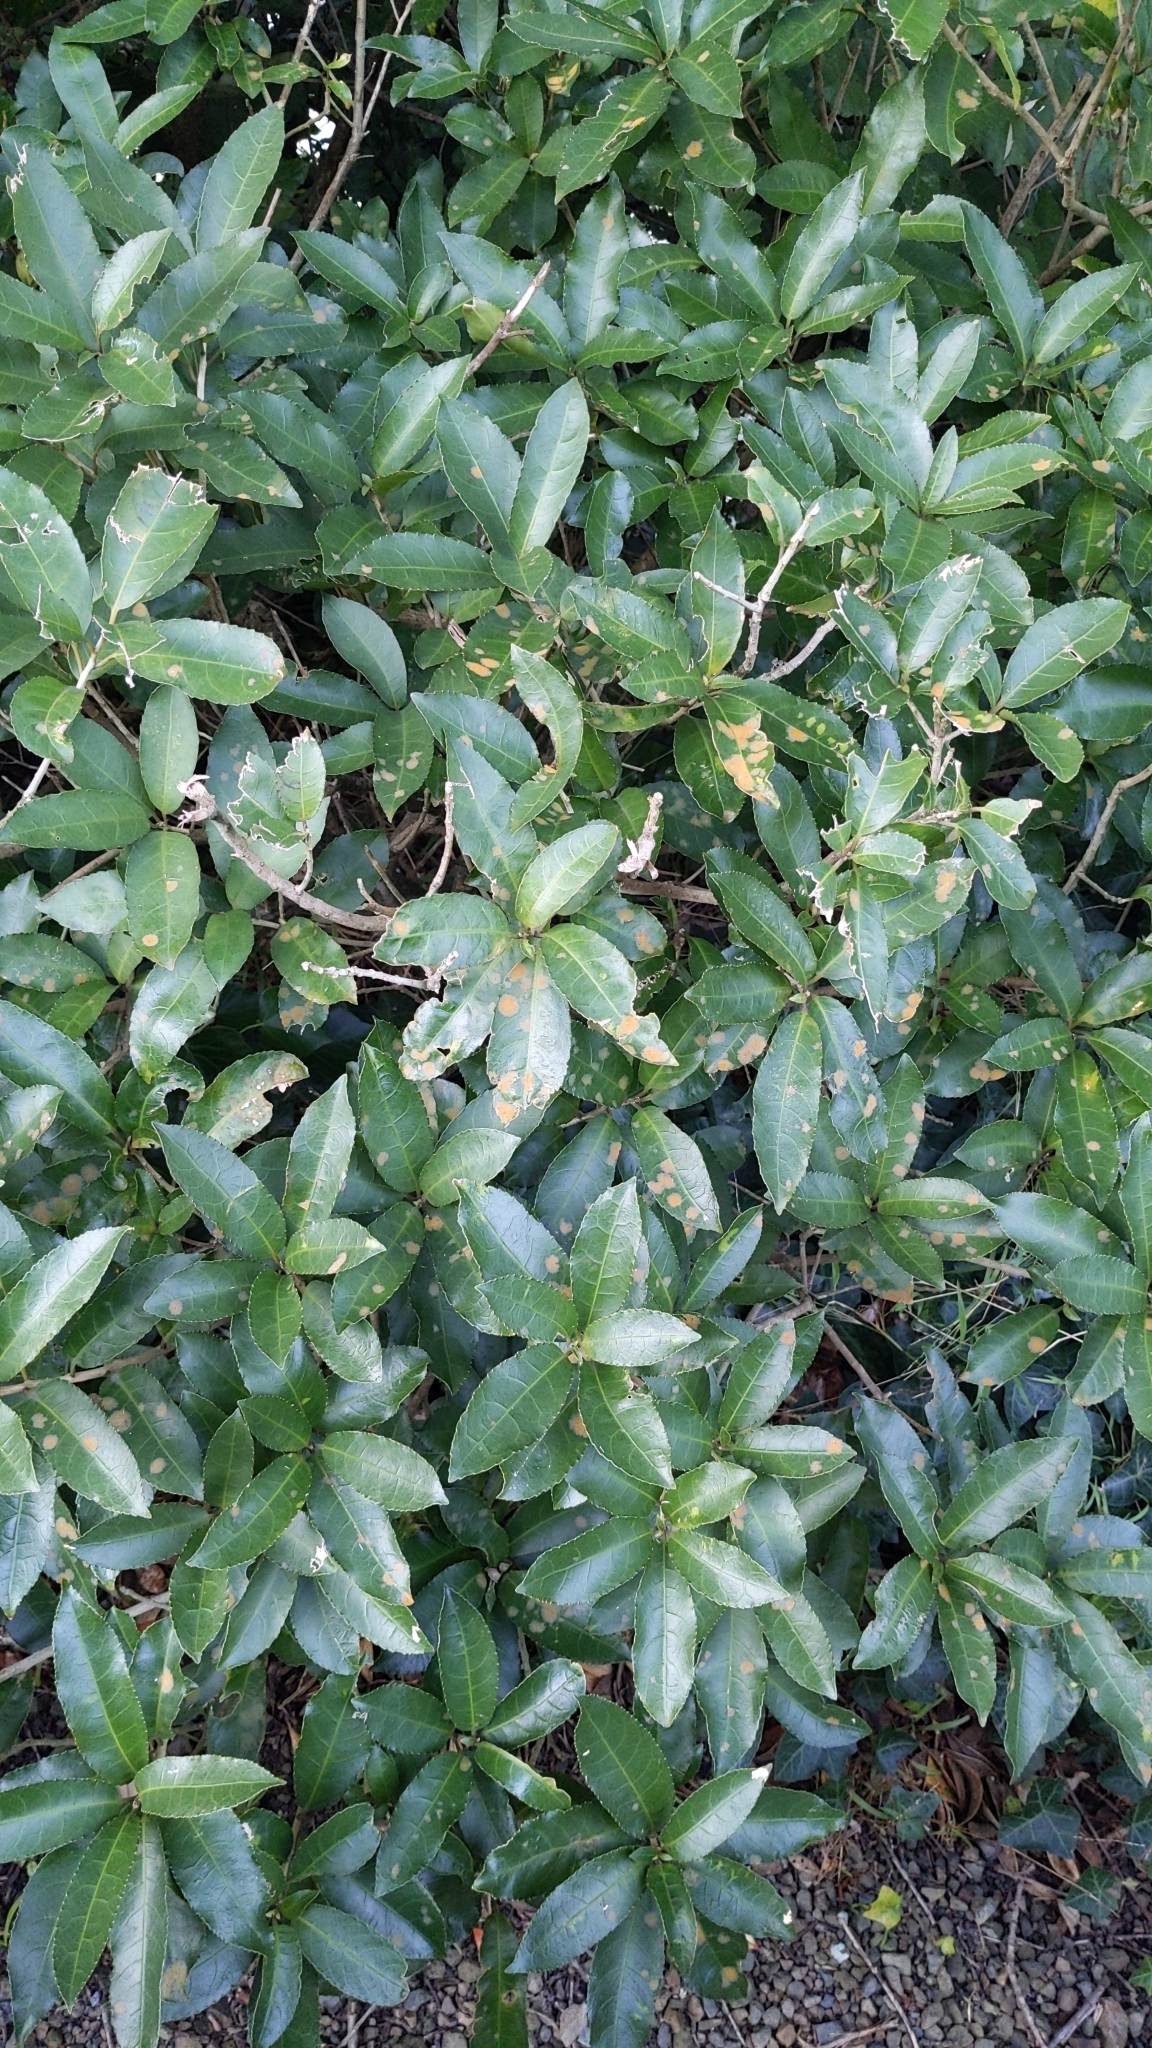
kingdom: Plantae
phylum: Chlorophyta
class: Ulvophyceae
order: Trentepohliales
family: Trentepohliaceae
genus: Cephaleuros
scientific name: Cephaleuros
